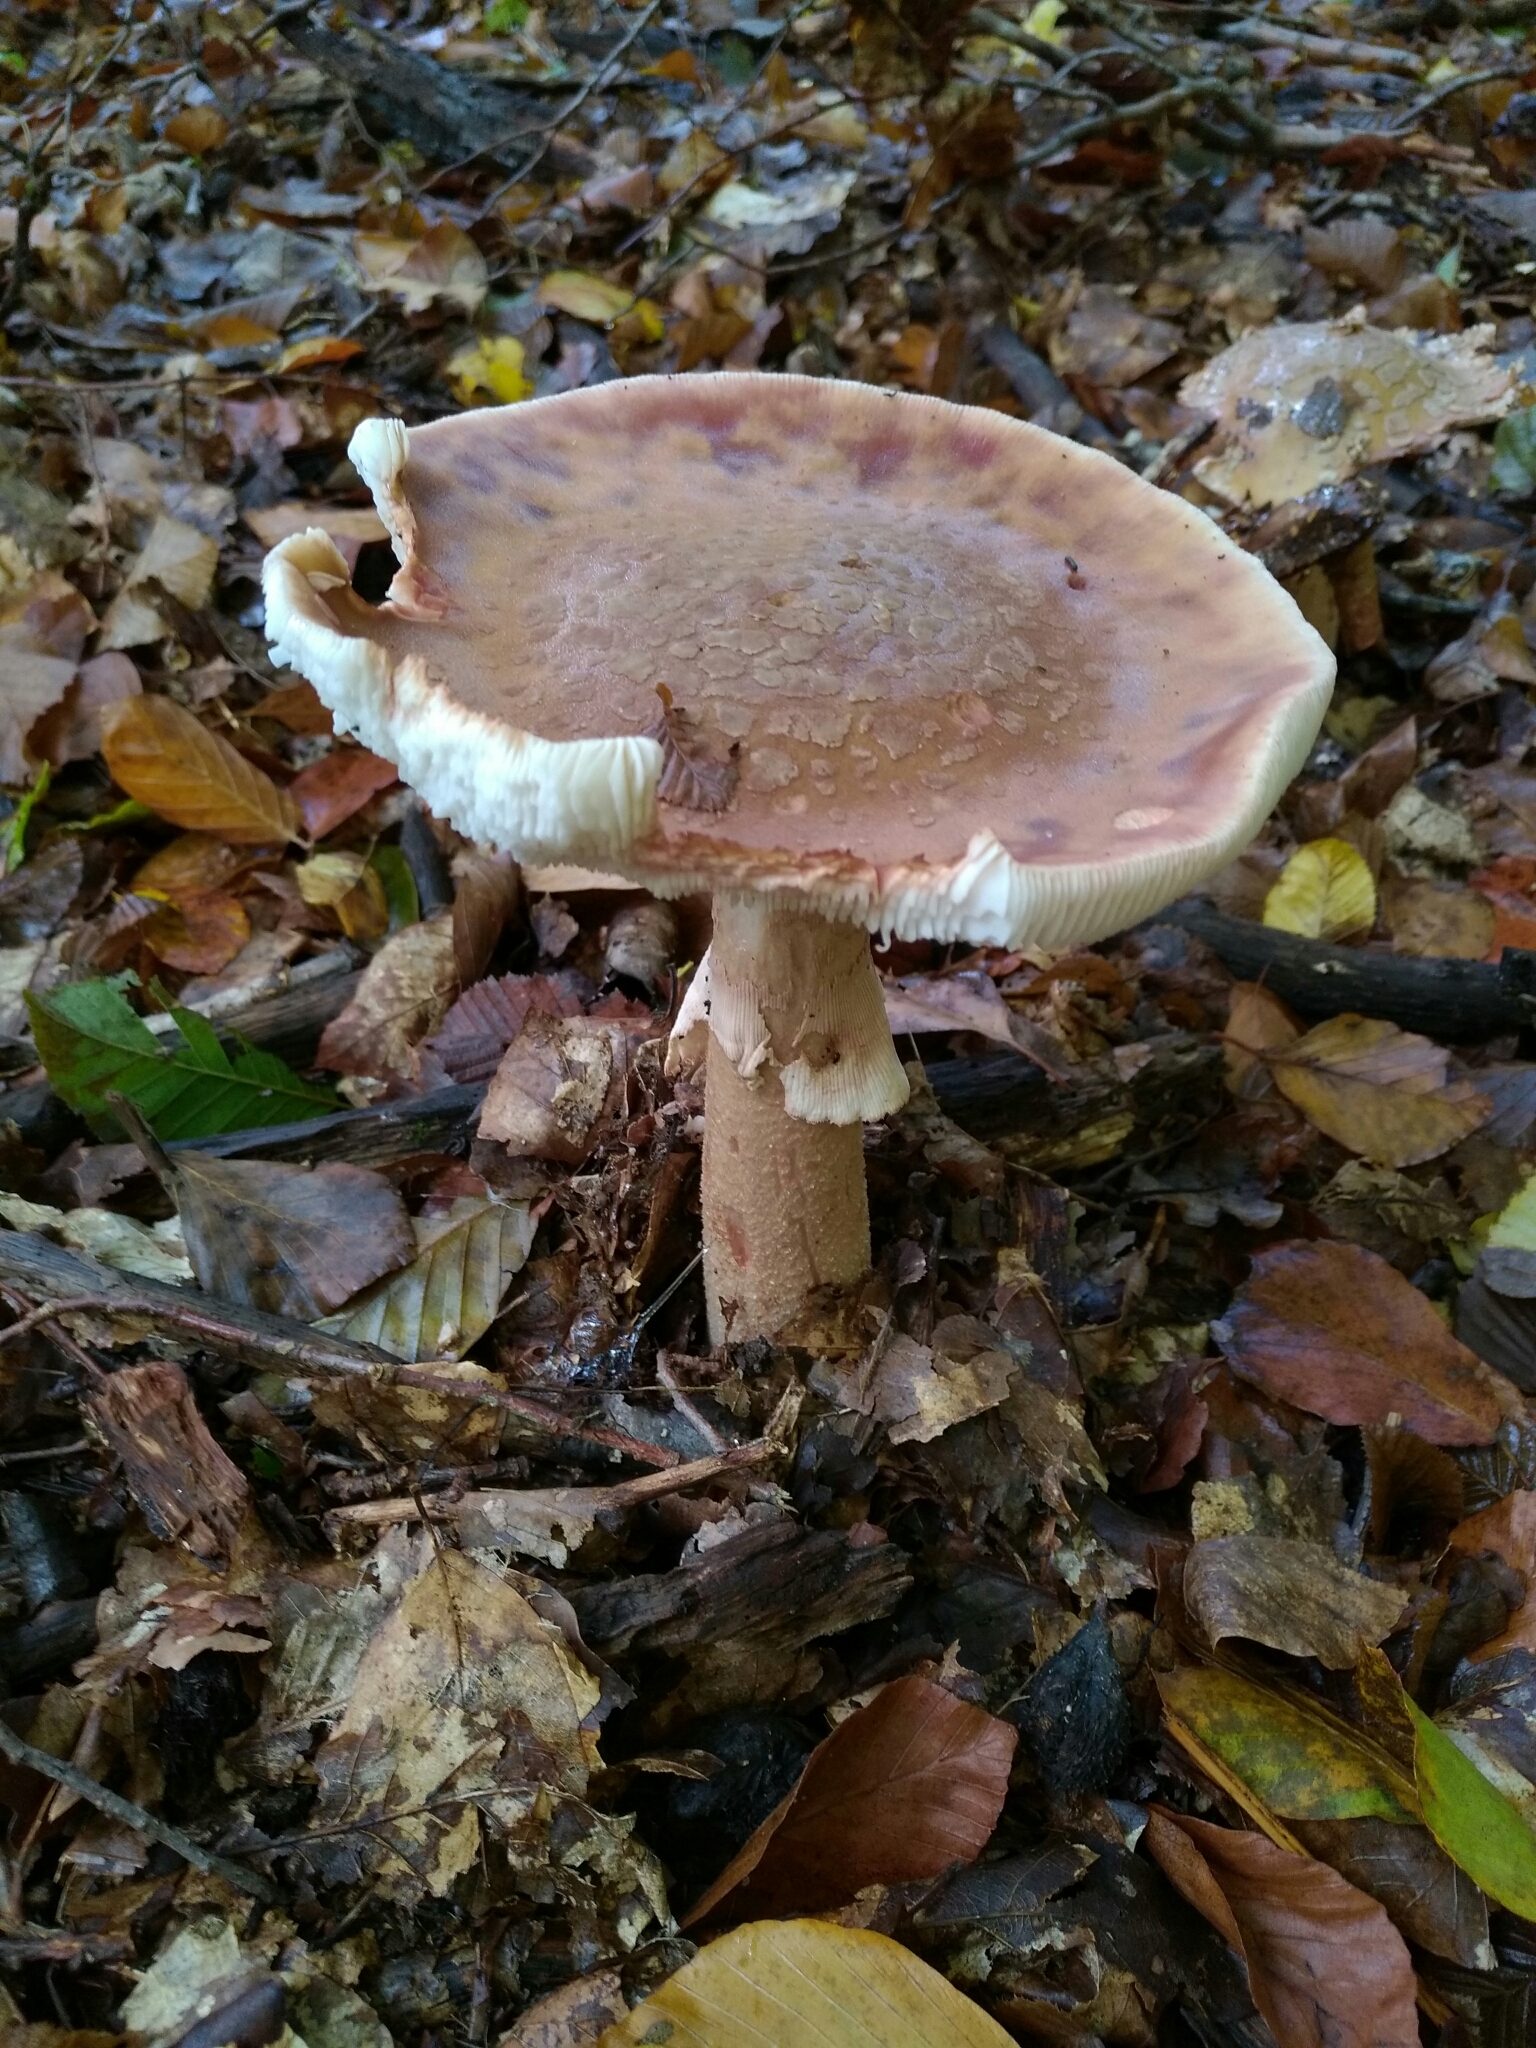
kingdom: Fungi
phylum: Basidiomycota
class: Agaricomycetes
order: Agaricales
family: Amanitaceae
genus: Amanita
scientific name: Amanita rubescens
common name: Blusher
